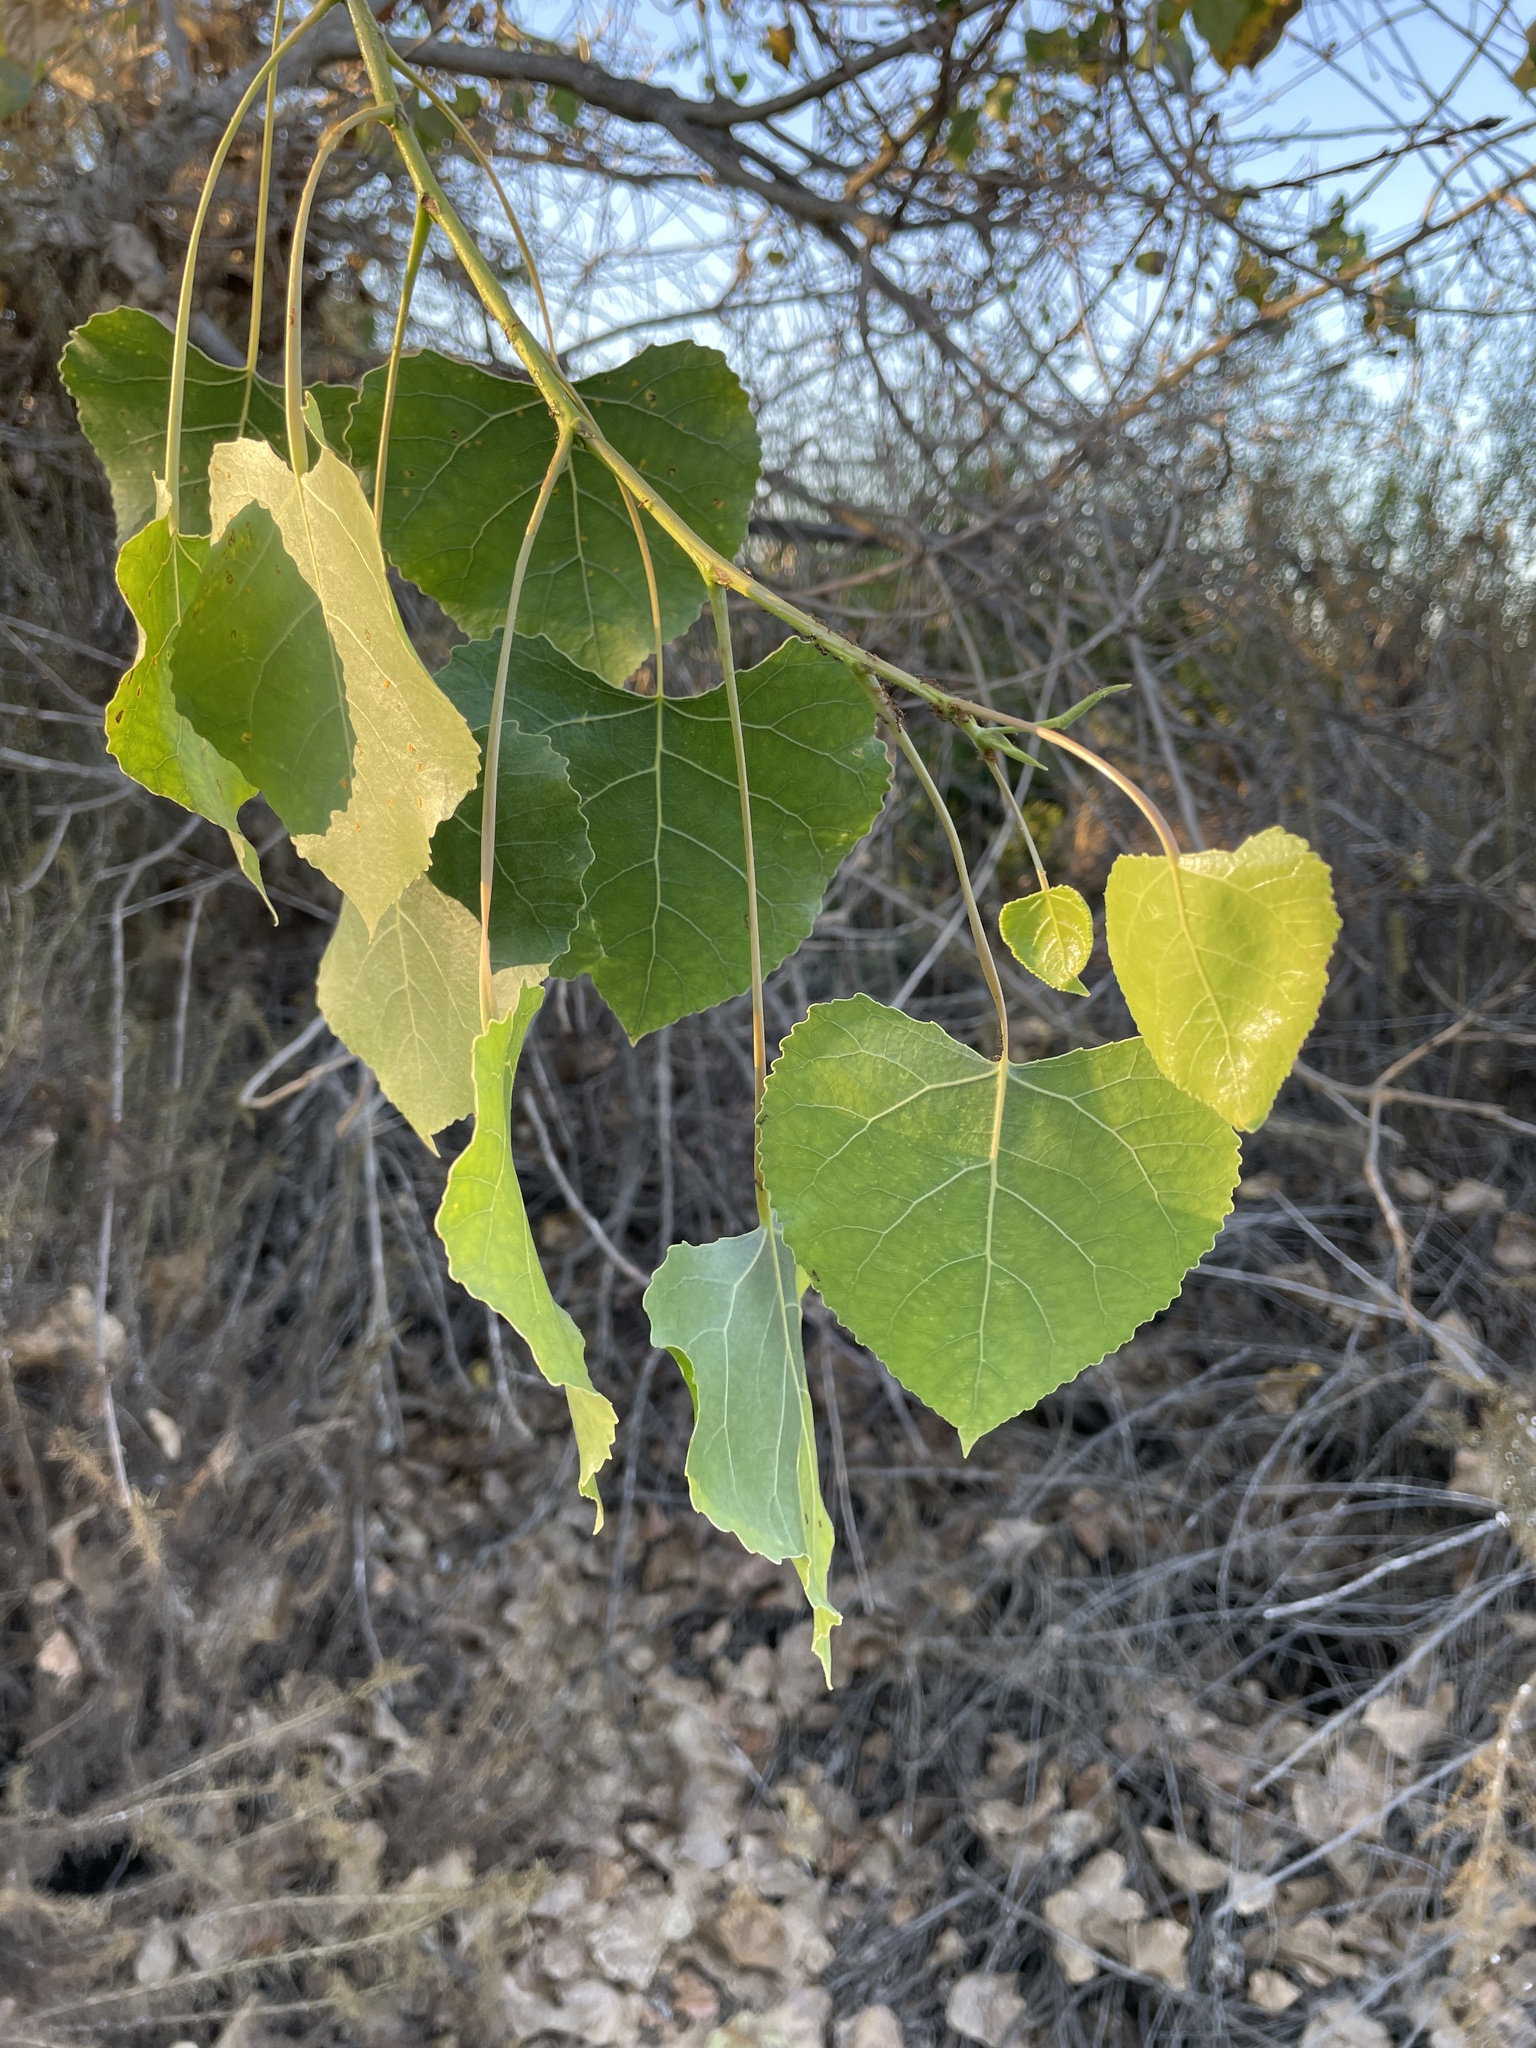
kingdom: Plantae
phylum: Tracheophyta
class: Magnoliopsida
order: Malpighiales
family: Salicaceae
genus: Populus
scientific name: Populus fremontii
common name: Fremont's cottonwood
